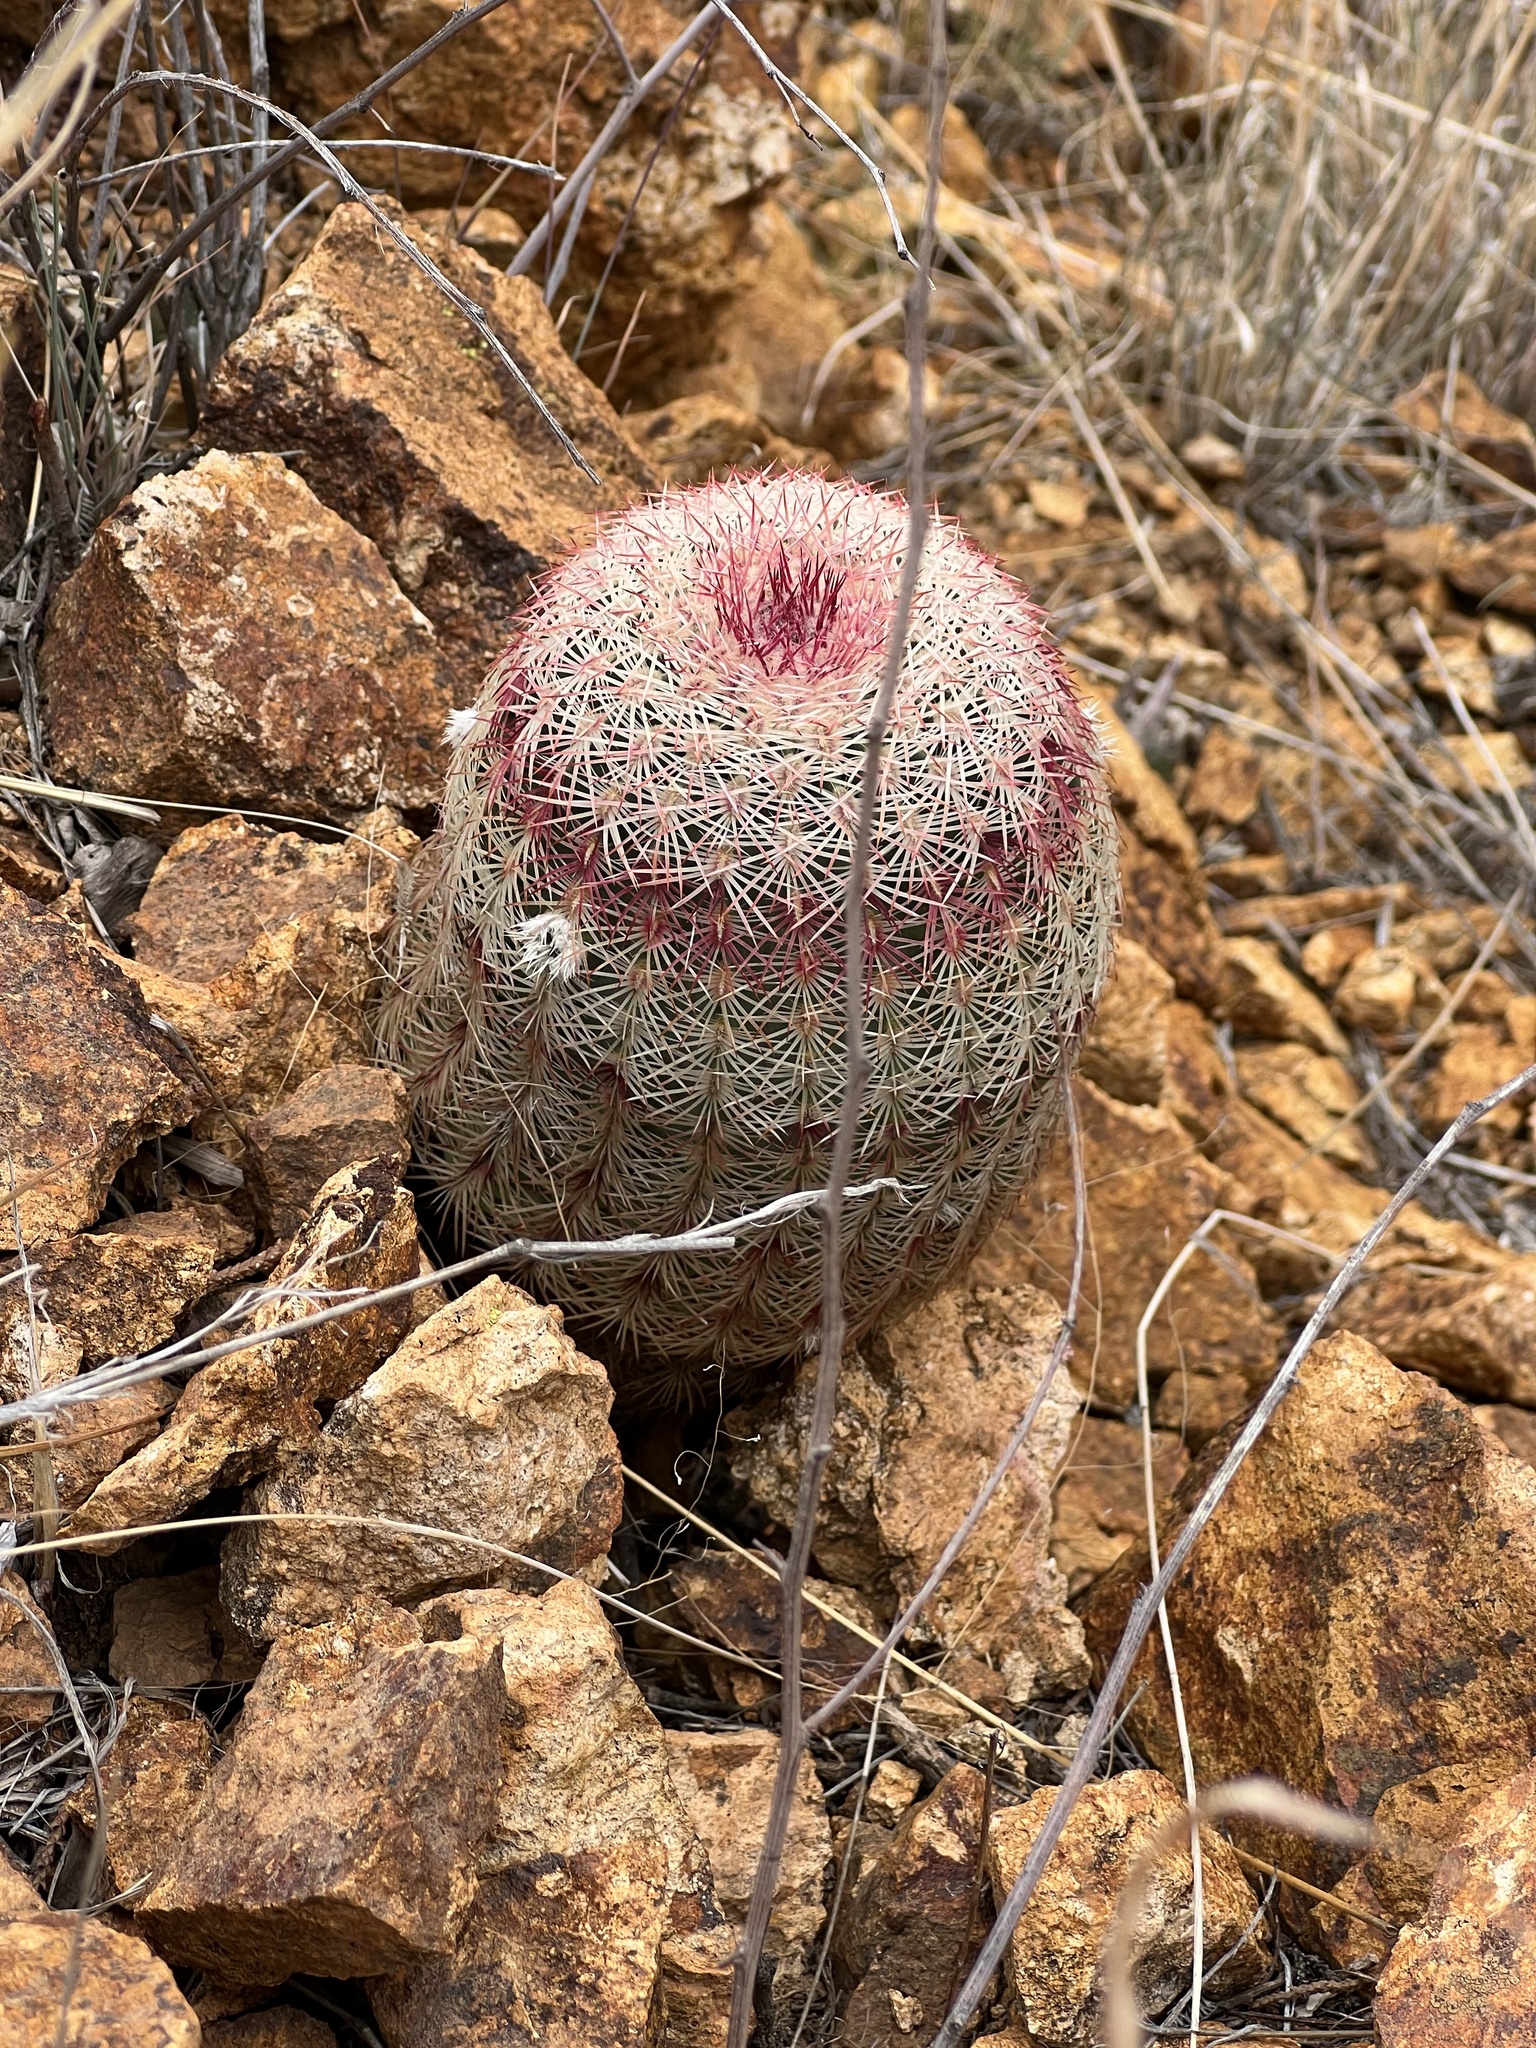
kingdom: Plantae
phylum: Tracheophyta
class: Magnoliopsida
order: Caryophyllales
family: Cactaceae
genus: Echinocereus
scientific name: Echinocereus rigidissimus
